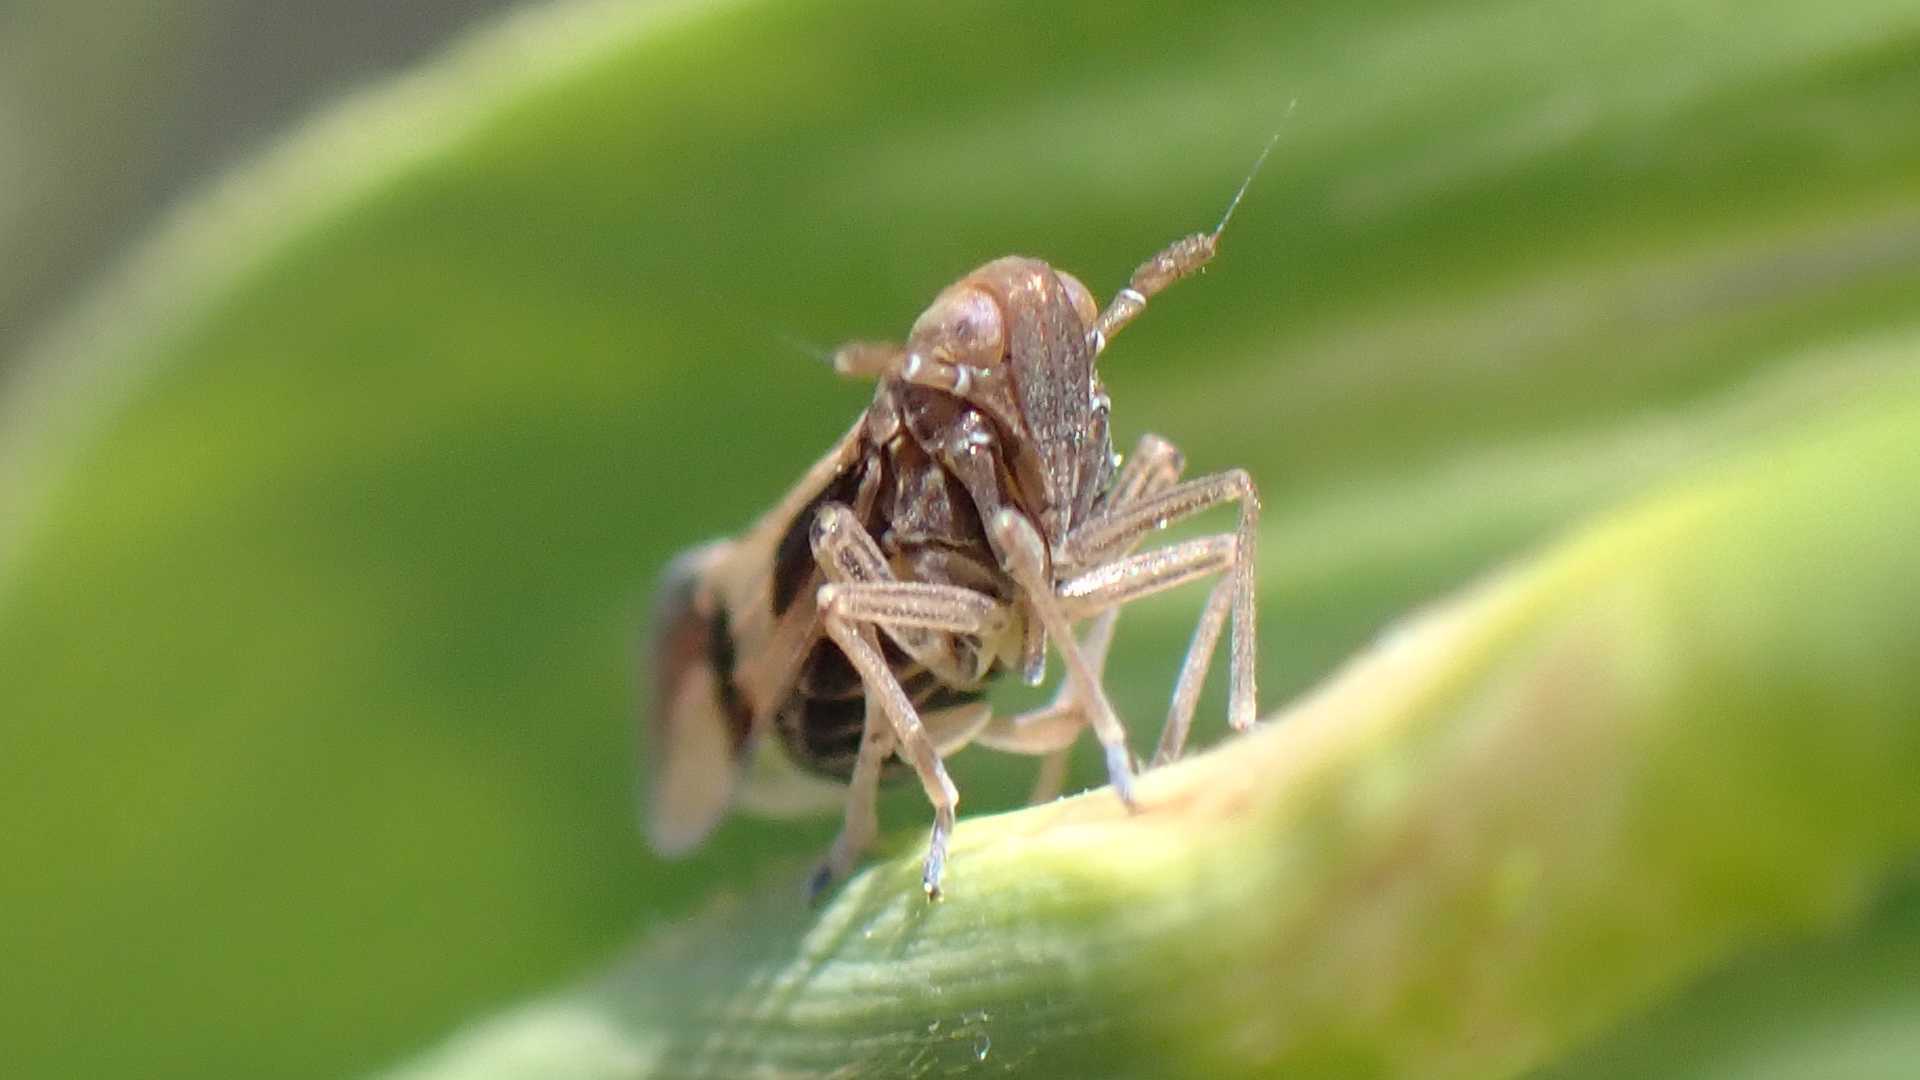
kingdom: Animalia
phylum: Arthropoda
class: Insecta
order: Hemiptera
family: Delphacidae
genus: Euides
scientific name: Euides basilinea
